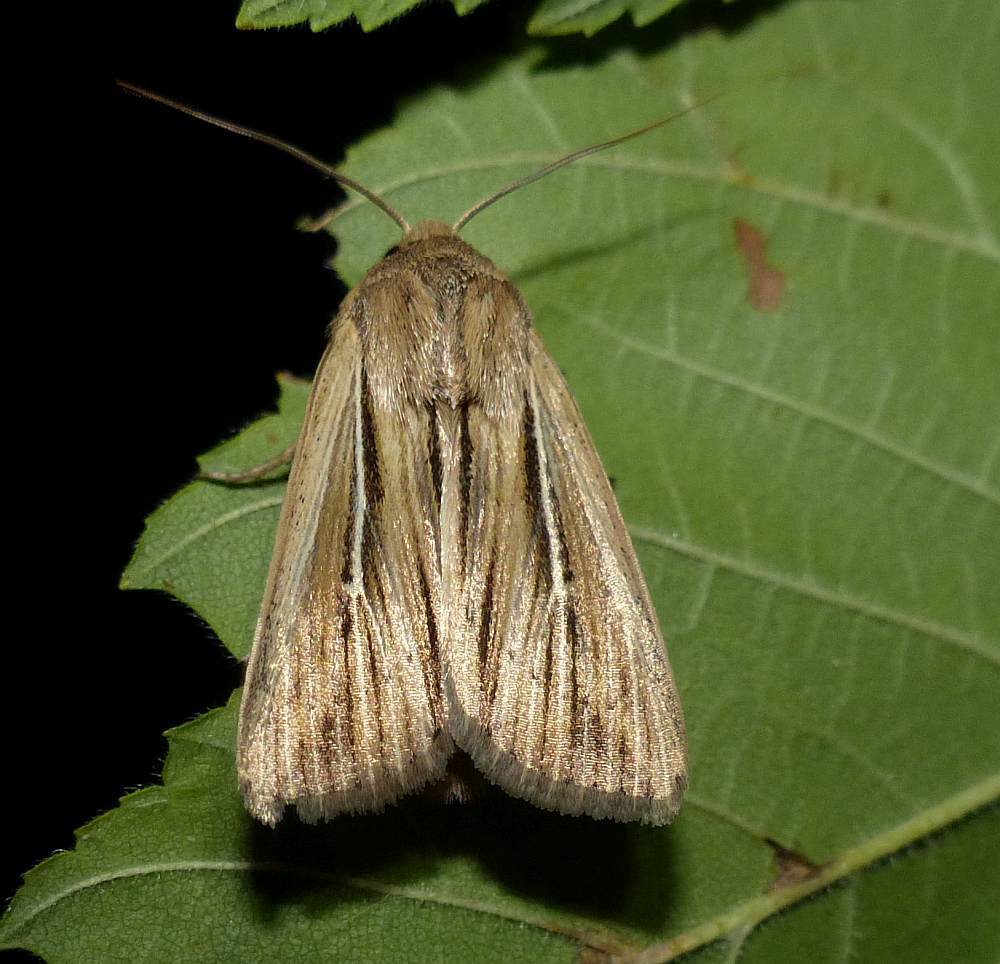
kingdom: Animalia
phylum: Arthropoda
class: Insecta
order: Lepidoptera
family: Noctuidae
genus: Leucania
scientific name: Leucania commoides
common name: Two-lined wainscot
